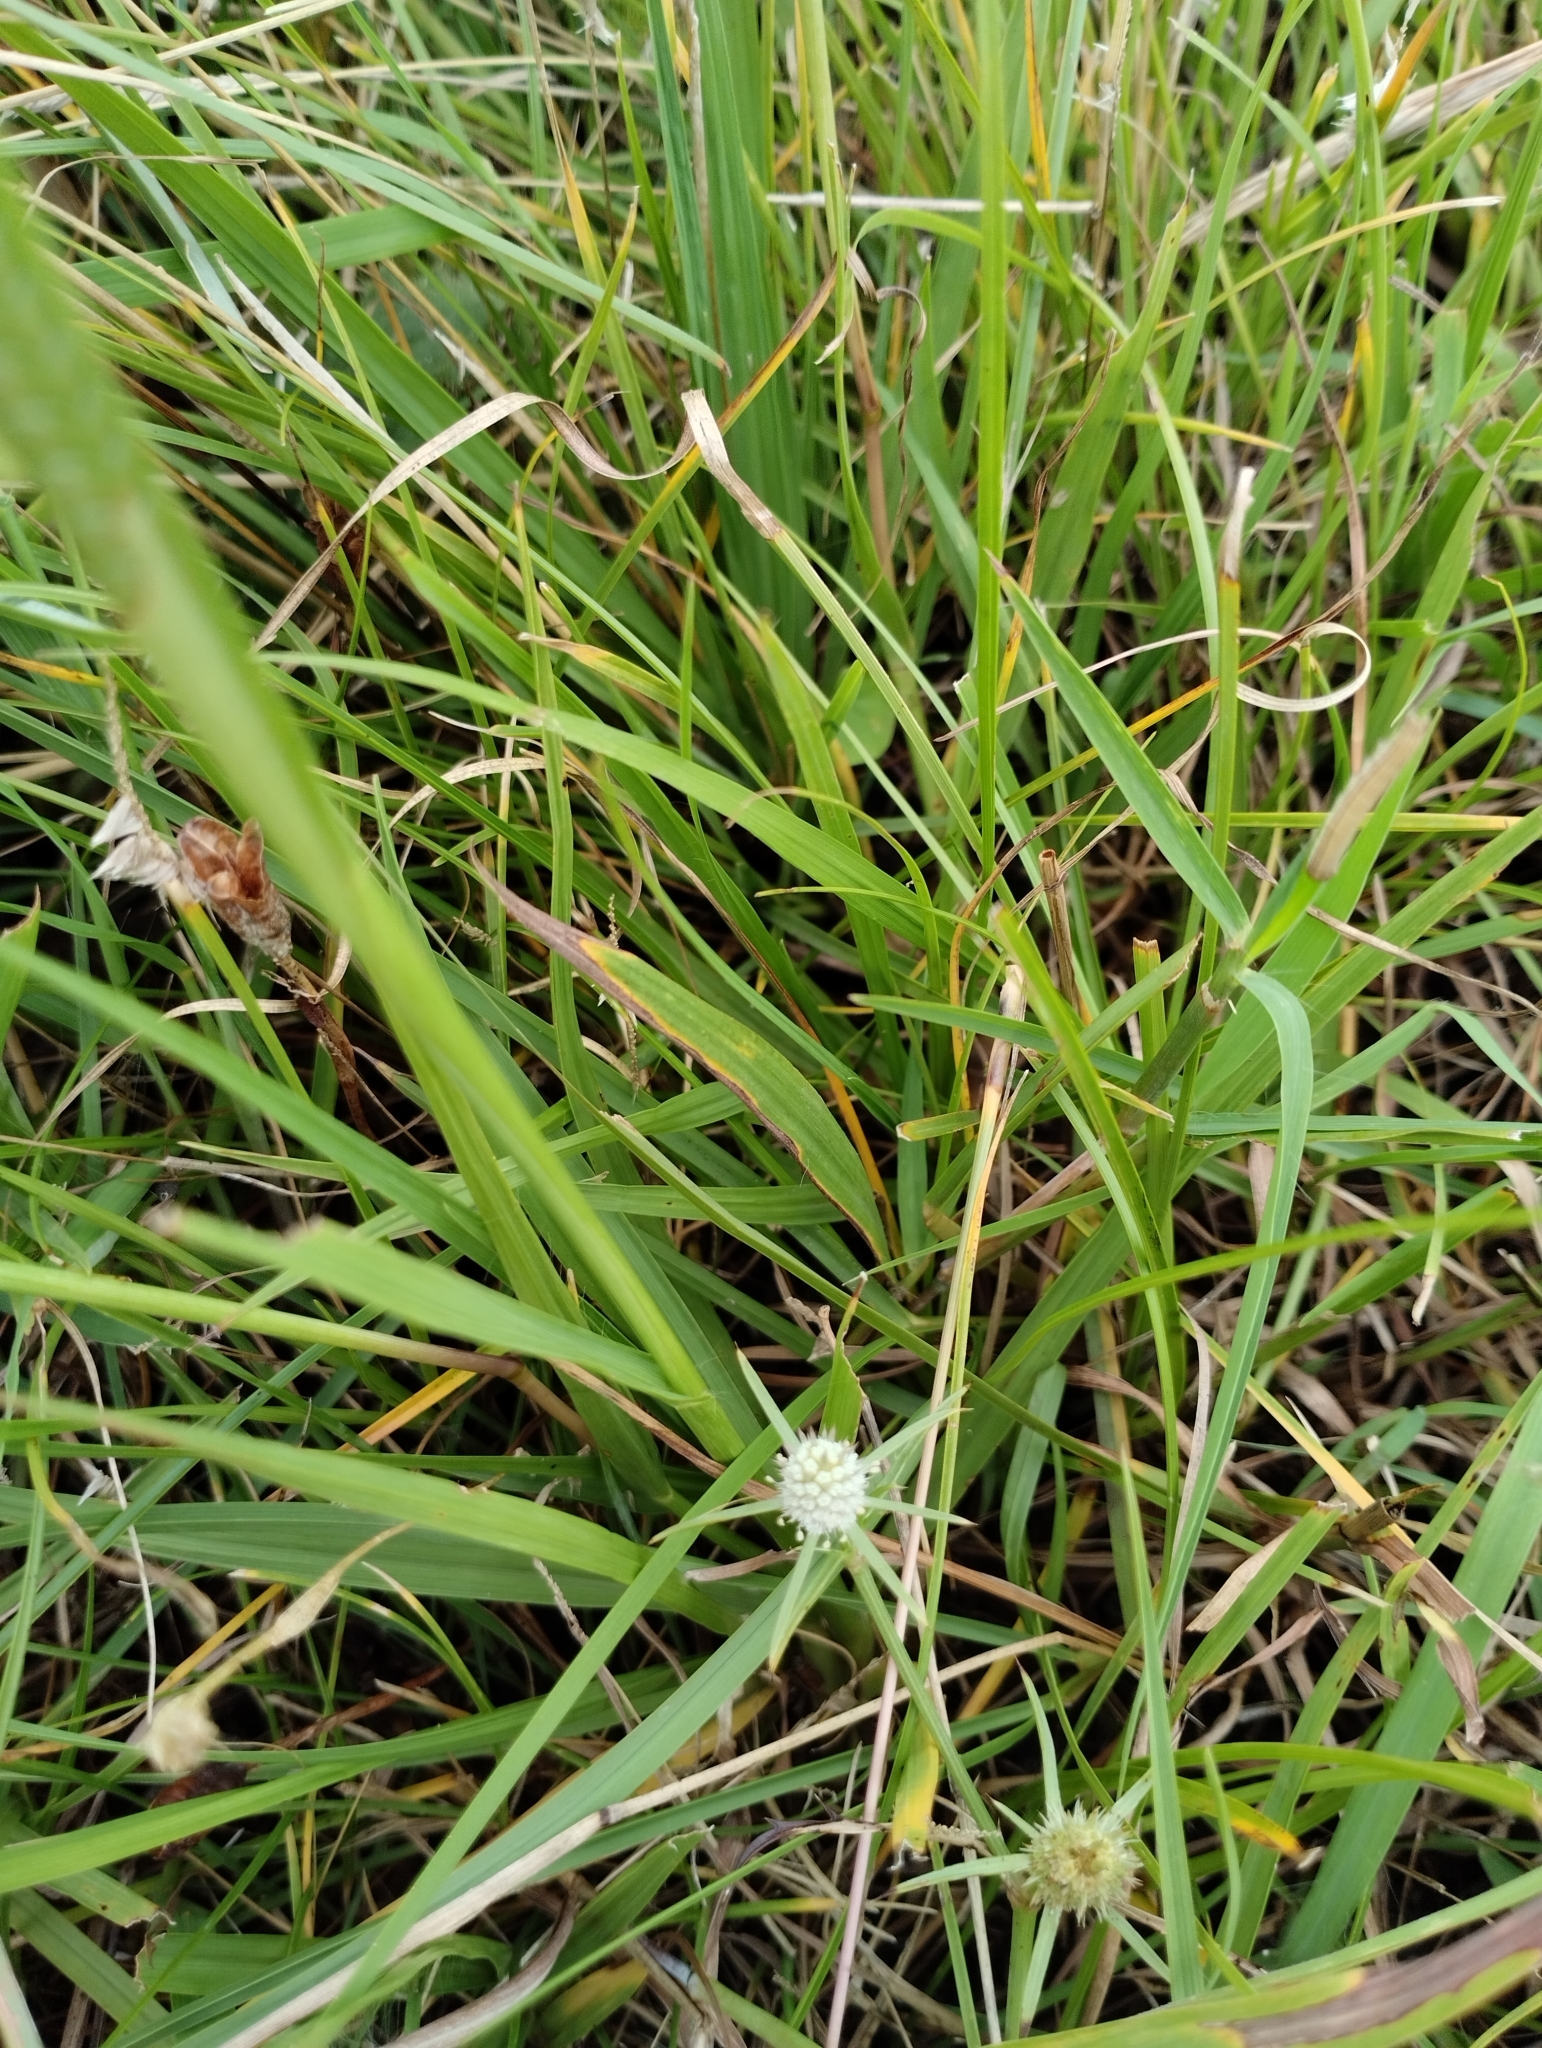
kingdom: Plantae
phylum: Tracheophyta
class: Magnoliopsida
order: Apiales
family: Apiaceae
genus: Eryngium
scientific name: Eryngium echinatum
